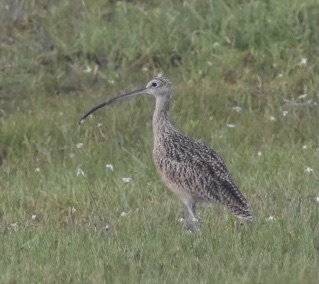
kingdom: Animalia
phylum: Chordata
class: Aves
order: Charadriiformes
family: Scolopacidae
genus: Numenius
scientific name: Numenius americanus
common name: Long-billed curlew
